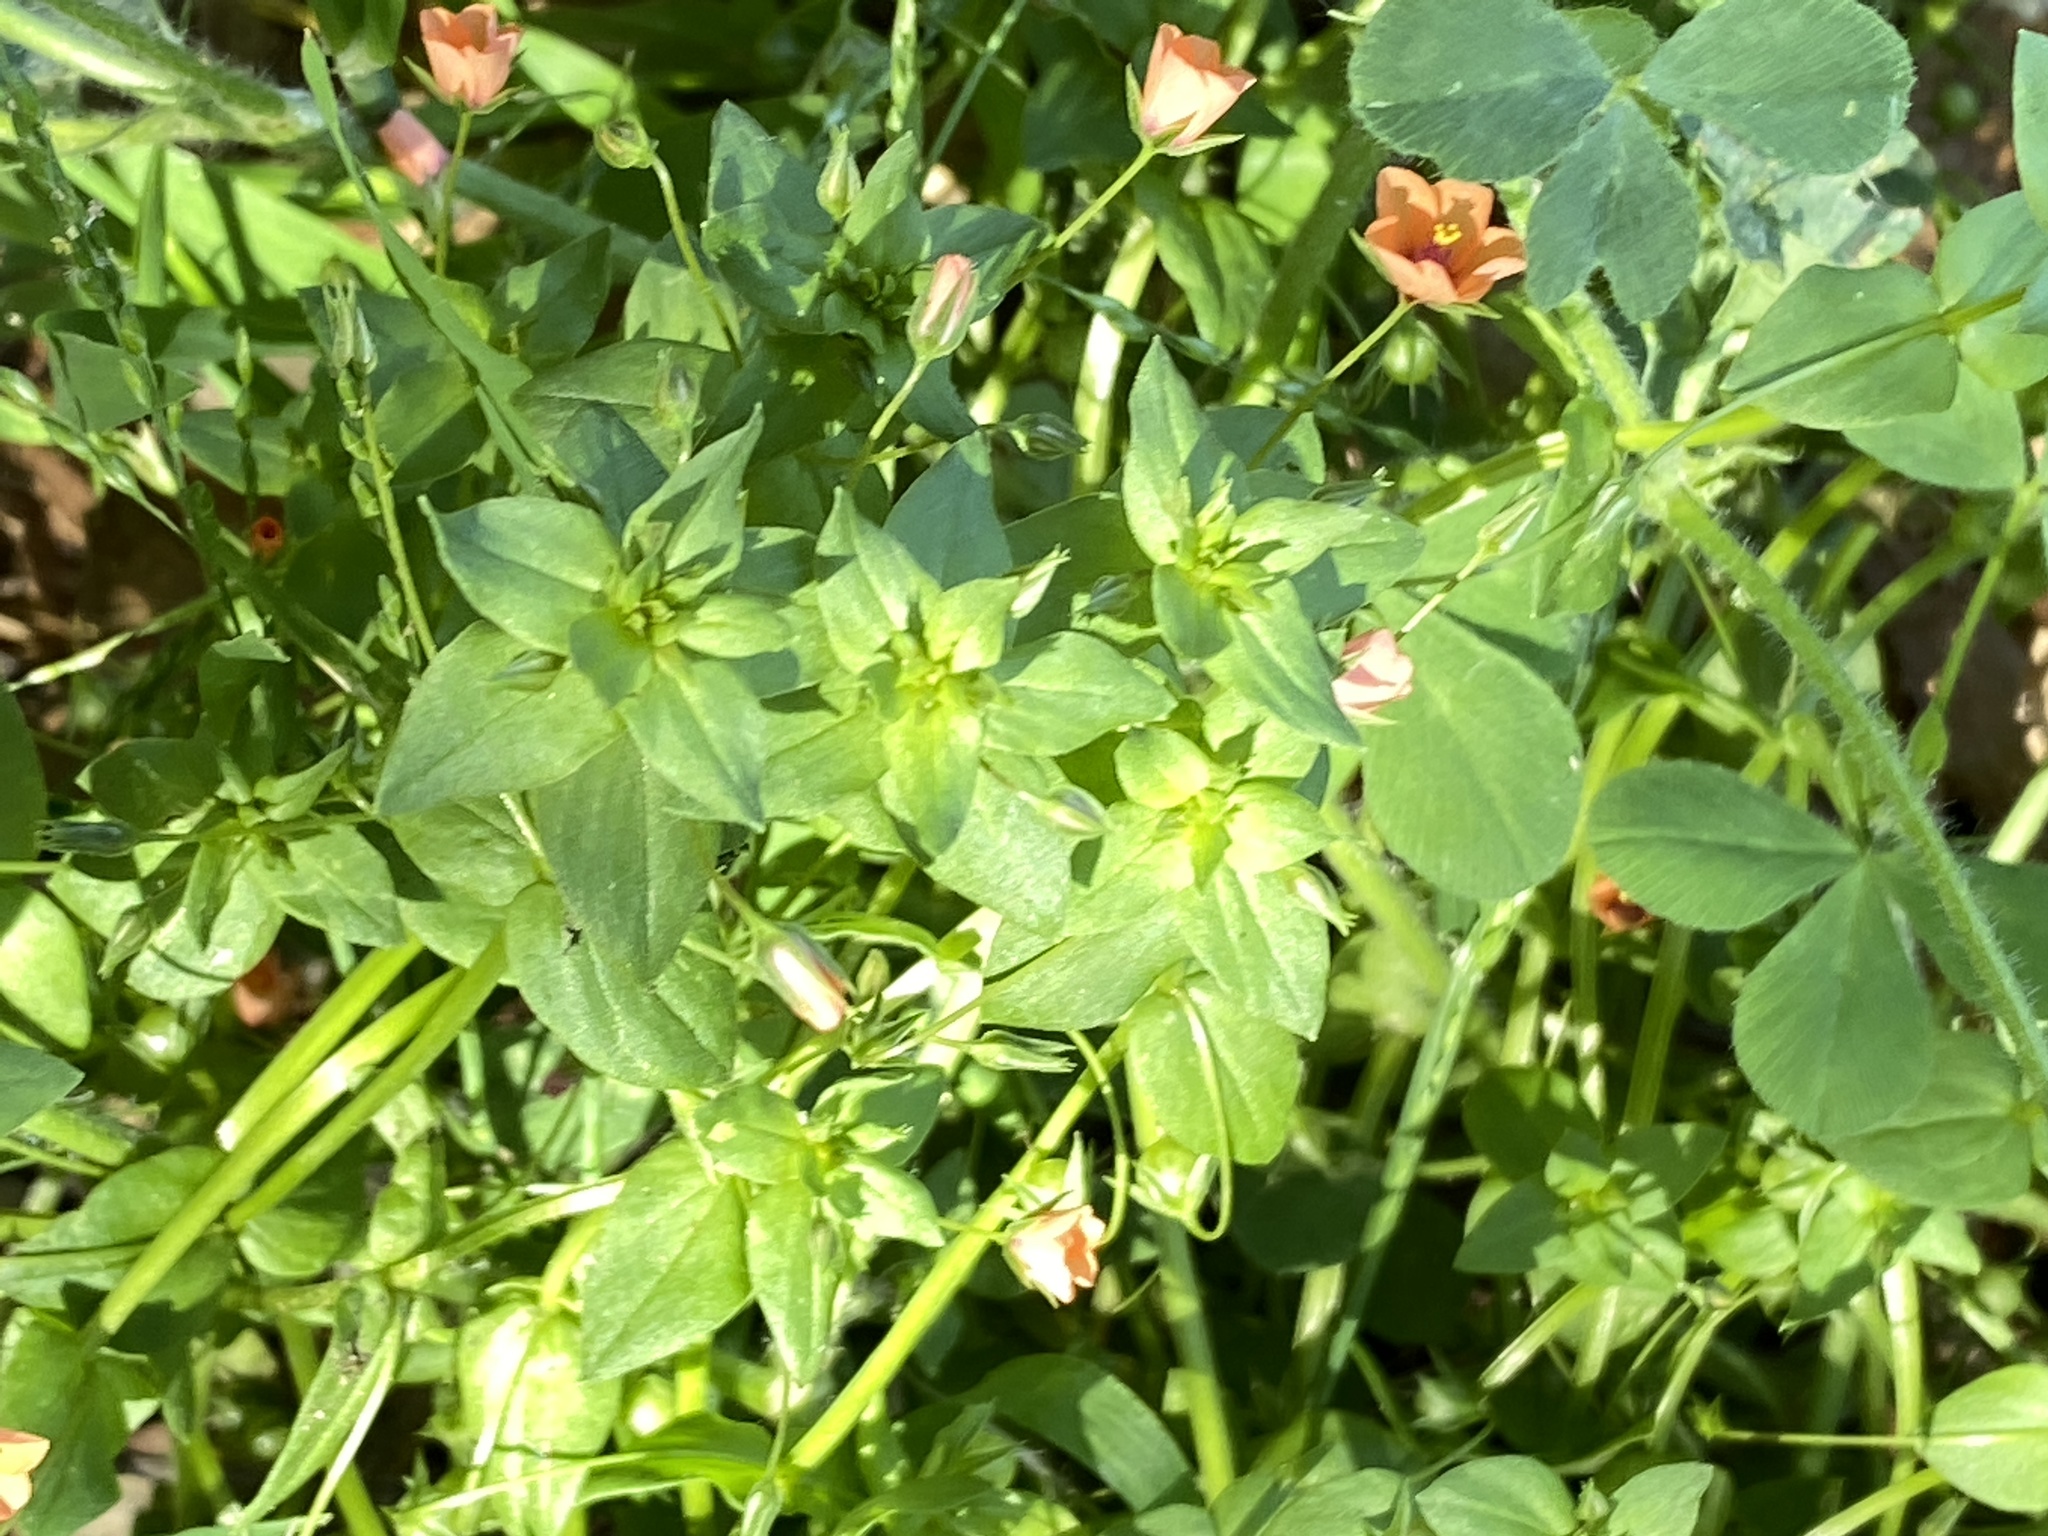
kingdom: Plantae
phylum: Tracheophyta
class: Magnoliopsida
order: Ericales
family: Primulaceae
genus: Lysimachia
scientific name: Lysimachia arvensis
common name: Scarlet pimpernel
